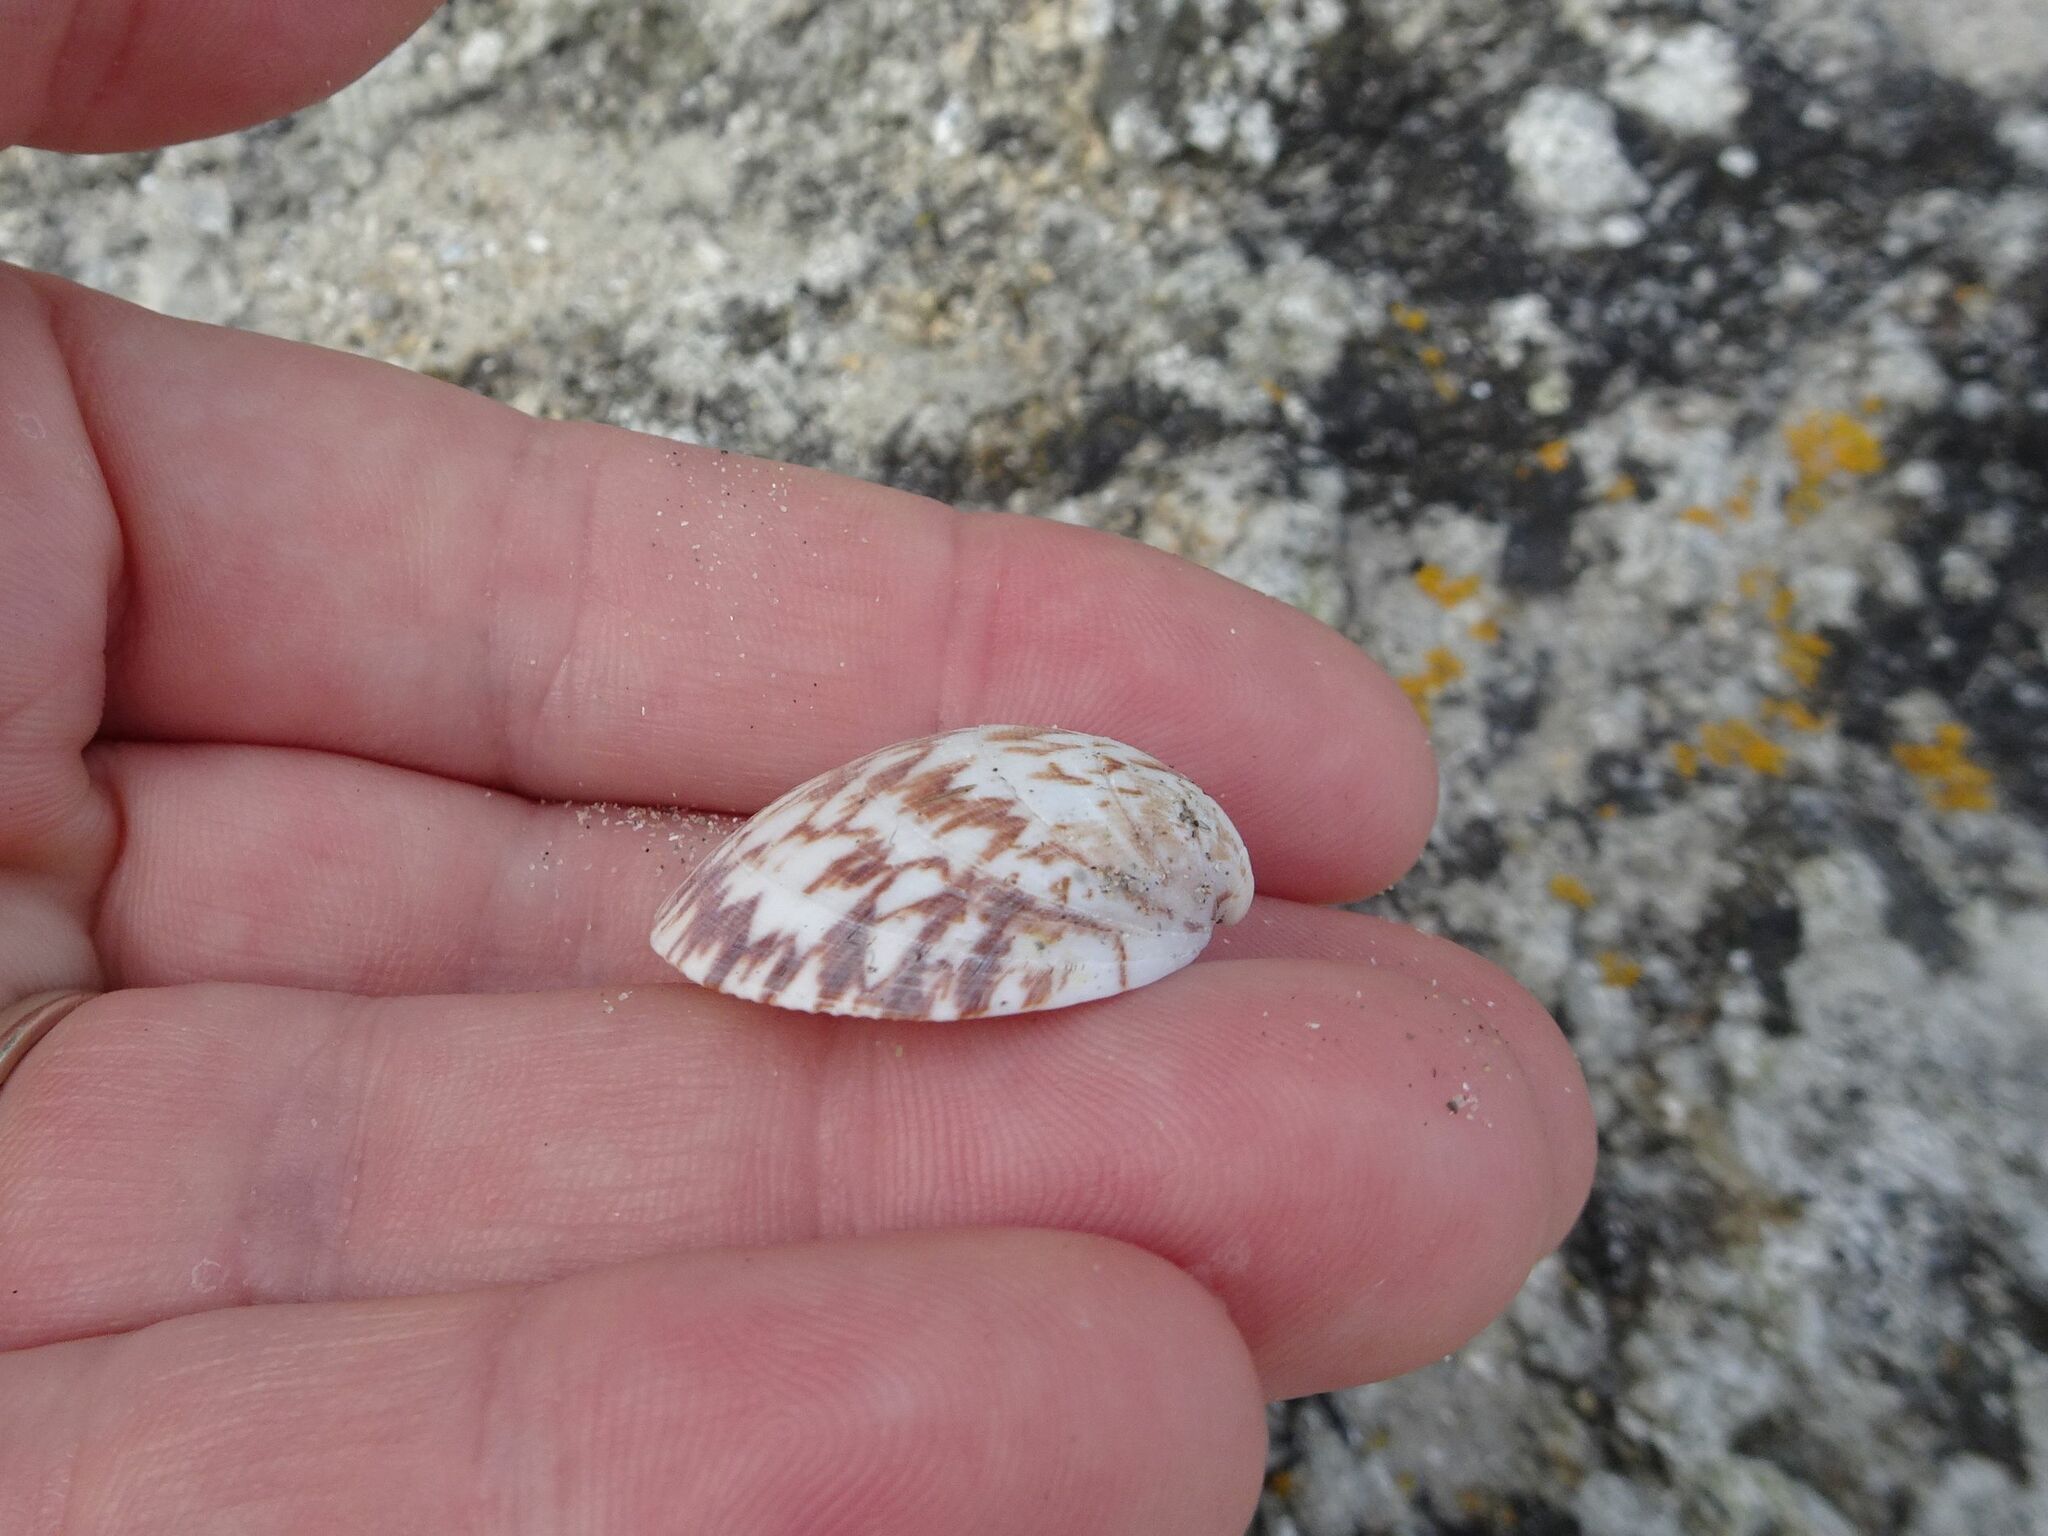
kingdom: Animalia
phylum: Mollusca
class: Bivalvia
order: Arcida
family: Glycymerididae
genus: Glycymeris
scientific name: Glycymeris glycymeris
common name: Dog-cockle
